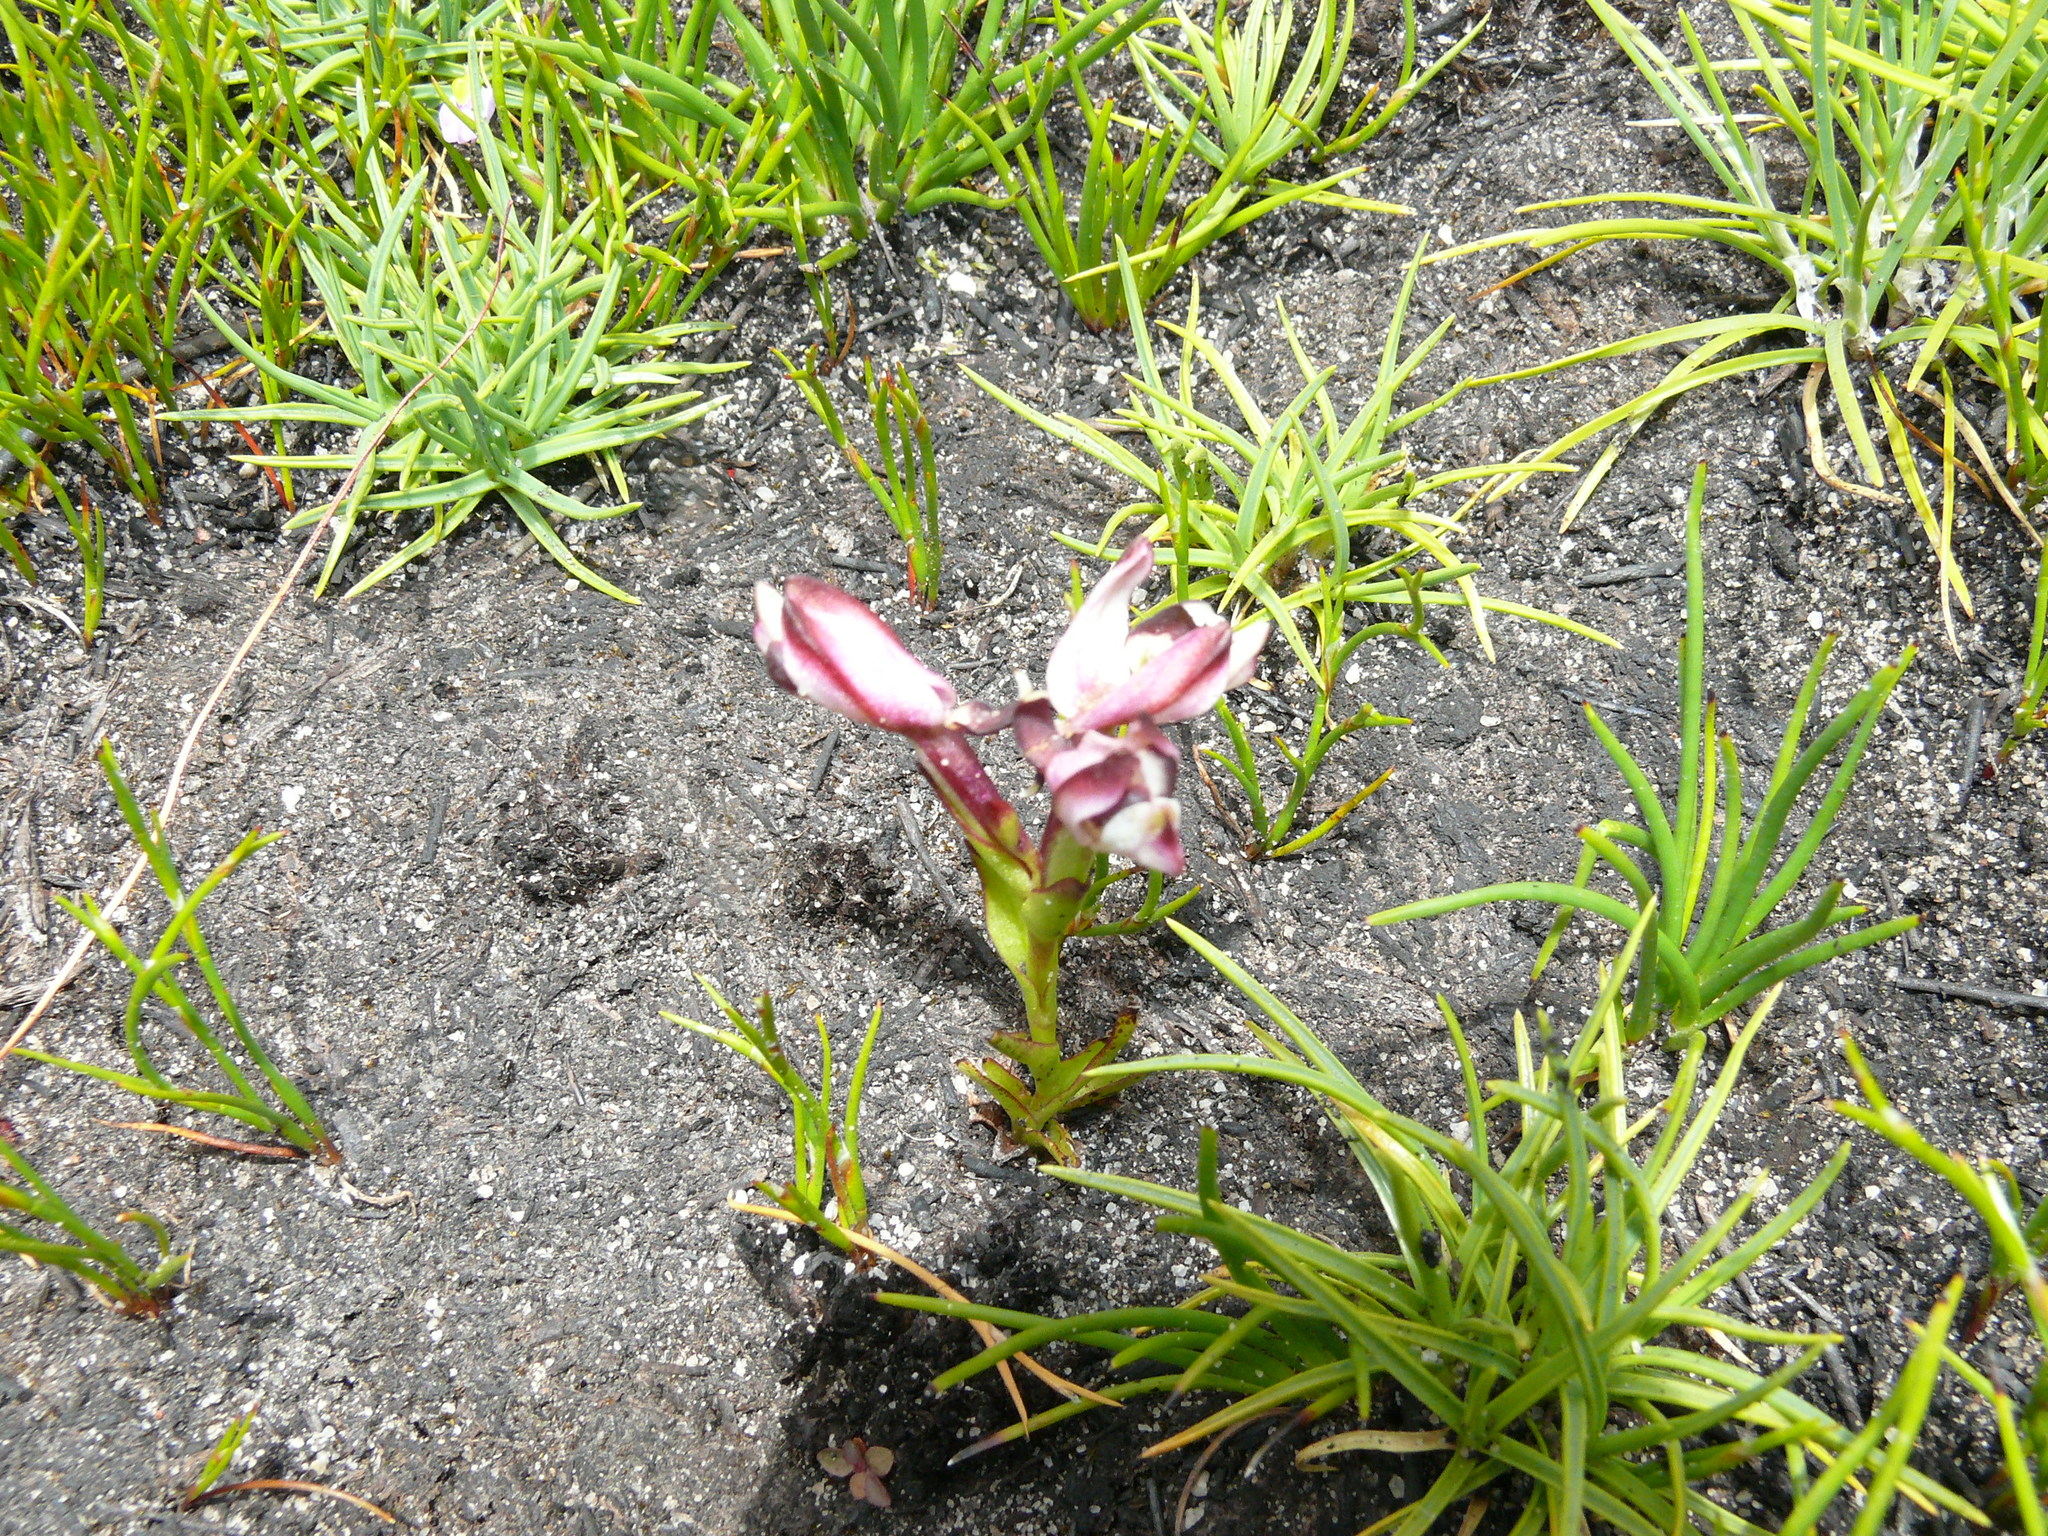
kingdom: Plantae
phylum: Tracheophyta
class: Liliopsida
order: Asparagales
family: Orchidaceae
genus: Disa
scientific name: Disa bivalvata
